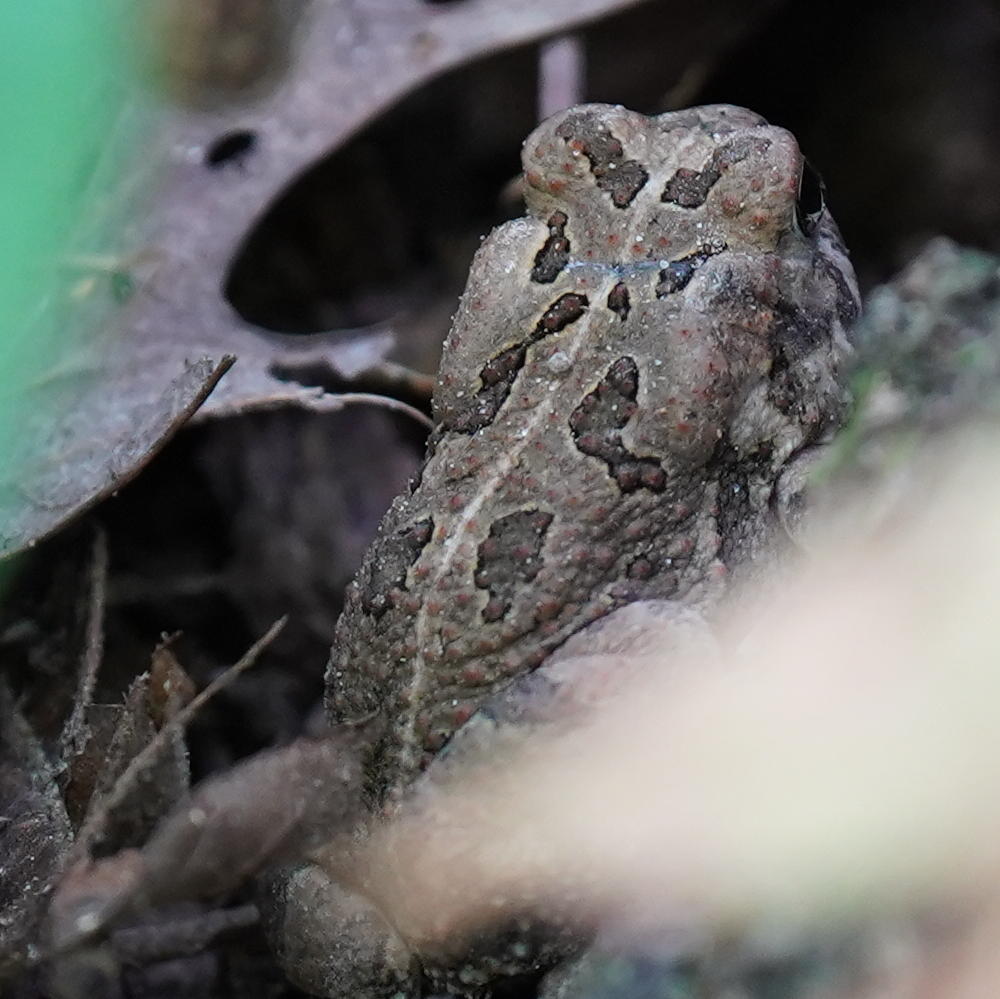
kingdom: Animalia
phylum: Chordata
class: Amphibia
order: Anura
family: Bufonidae
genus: Anaxyrus
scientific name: Anaxyrus fowleri
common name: Fowler's toad
